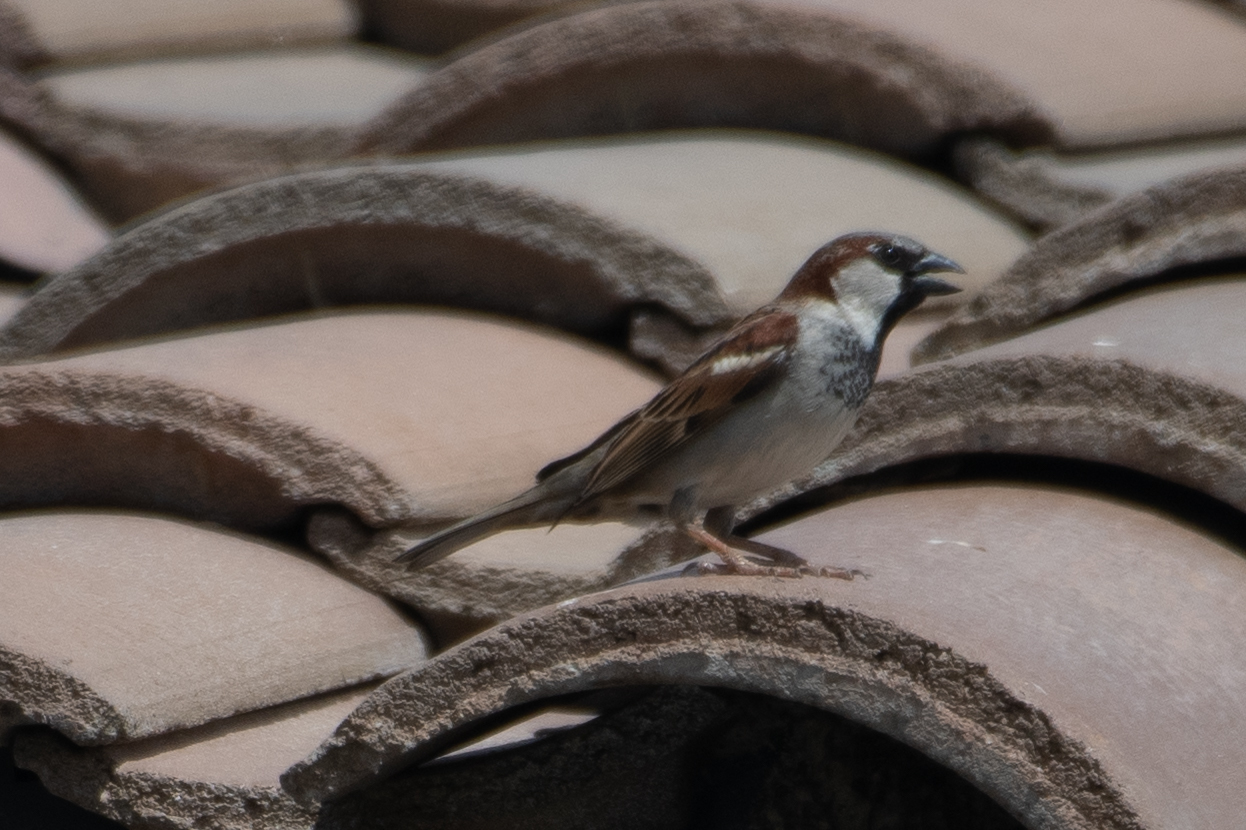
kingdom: Animalia
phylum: Chordata
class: Aves
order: Passeriformes
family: Passeridae
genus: Passer
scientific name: Passer domesticus
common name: House sparrow
